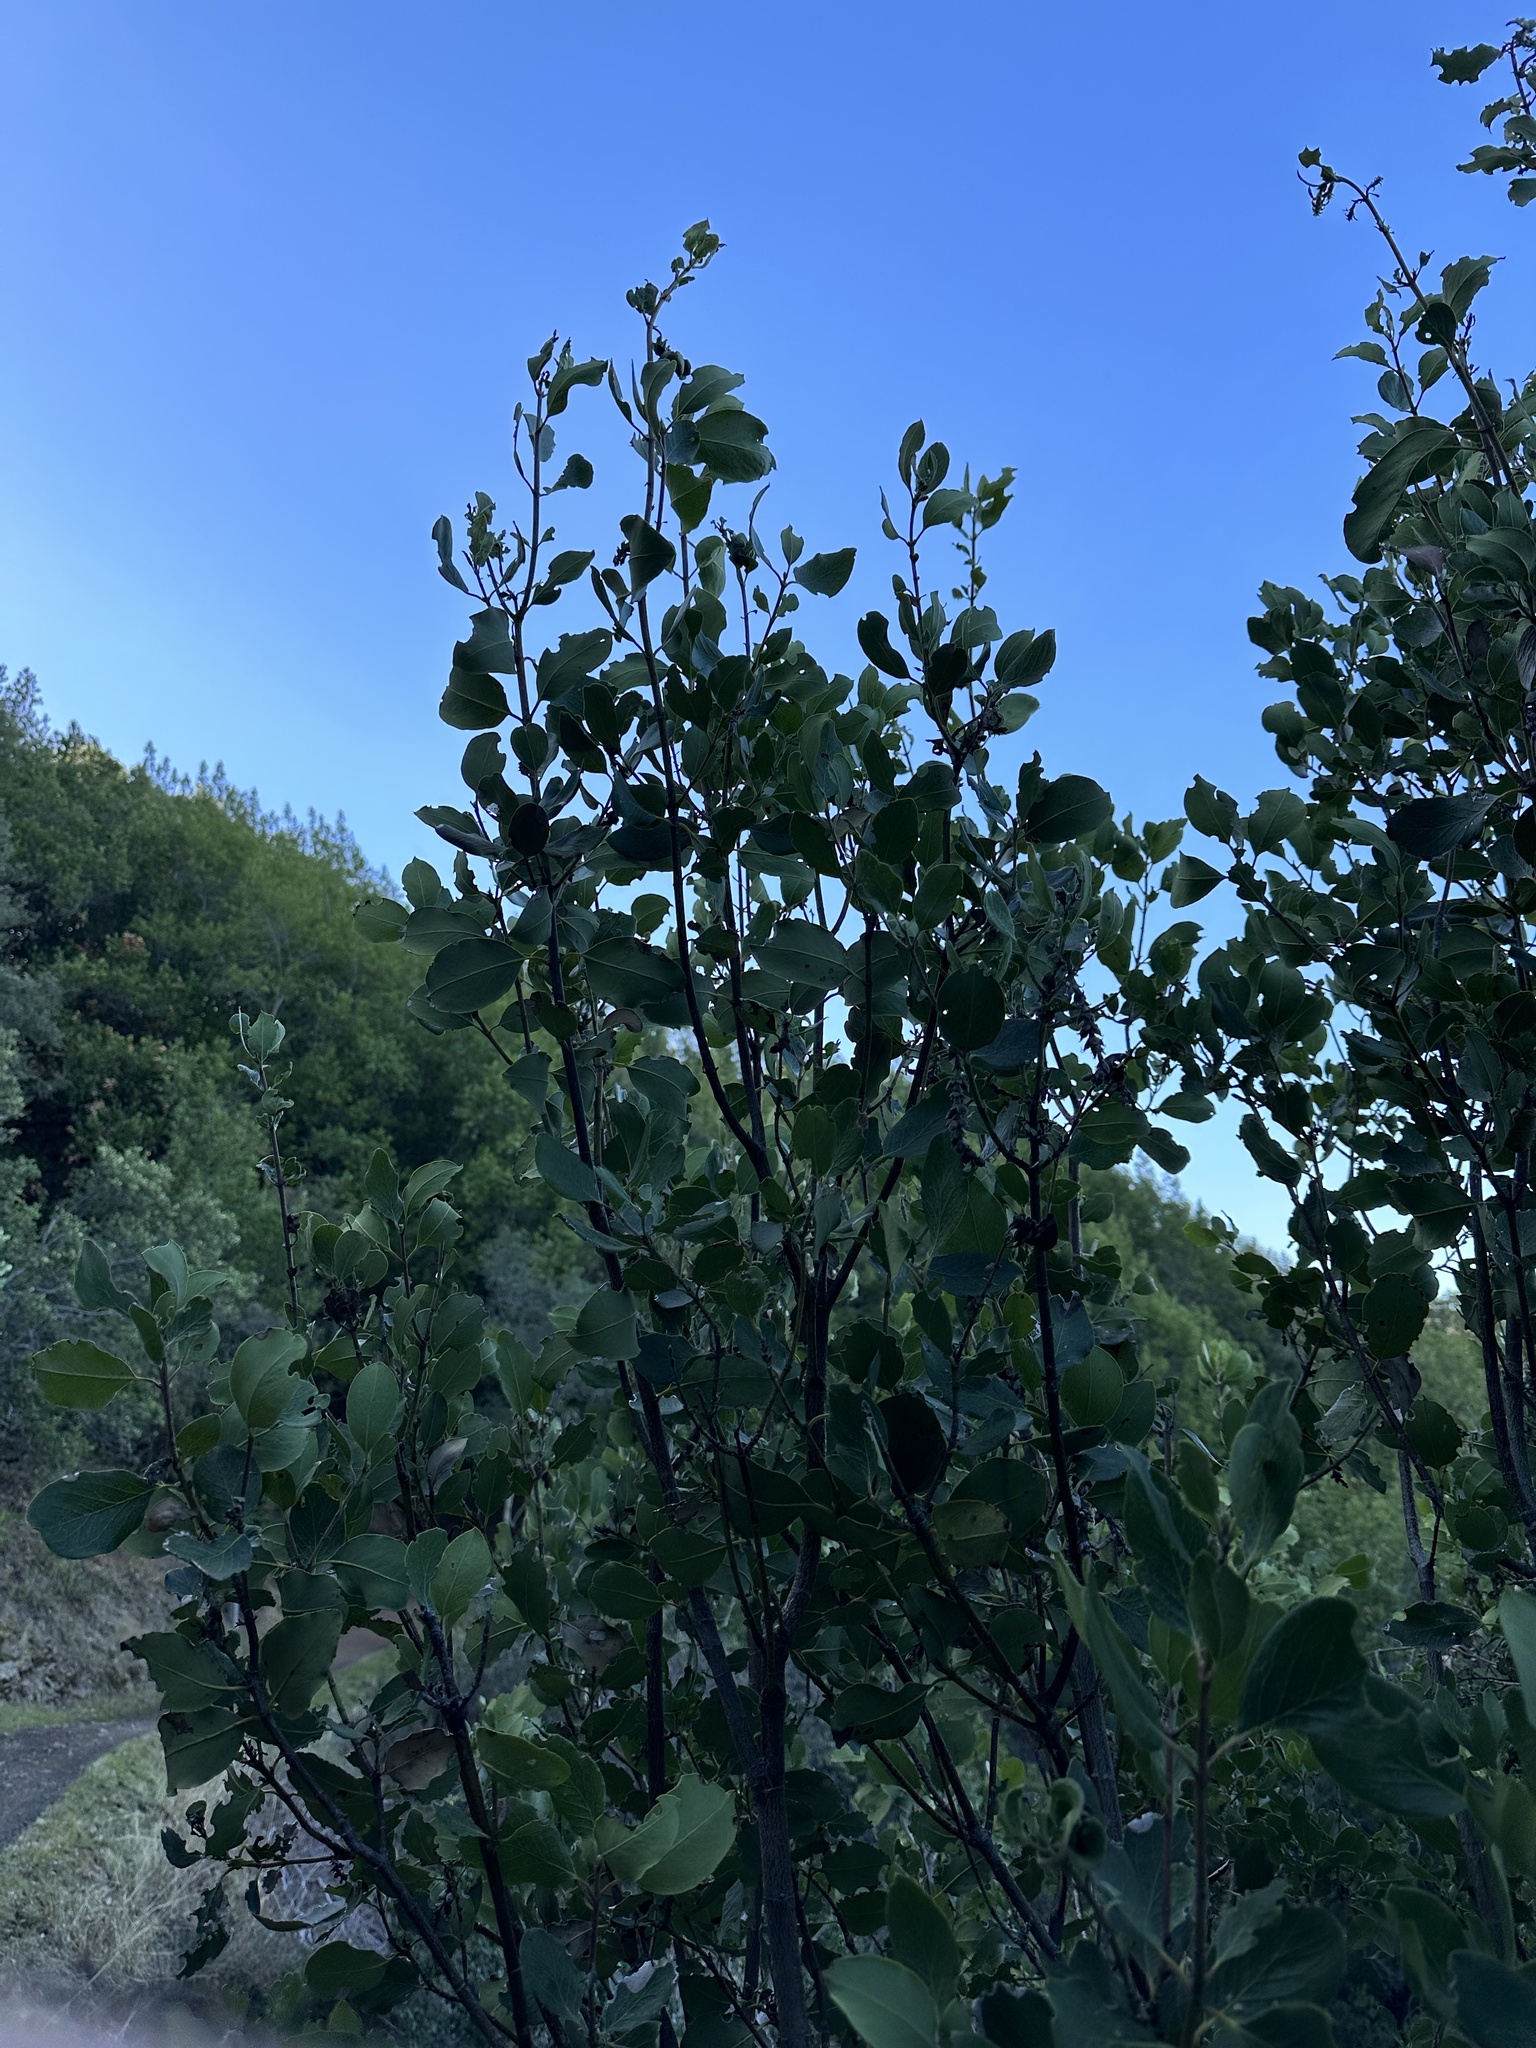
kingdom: Plantae
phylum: Tracheophyta
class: Magnoliopsida
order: Garryales
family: Garryaceae
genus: Garrya
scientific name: Garrya fremontii
